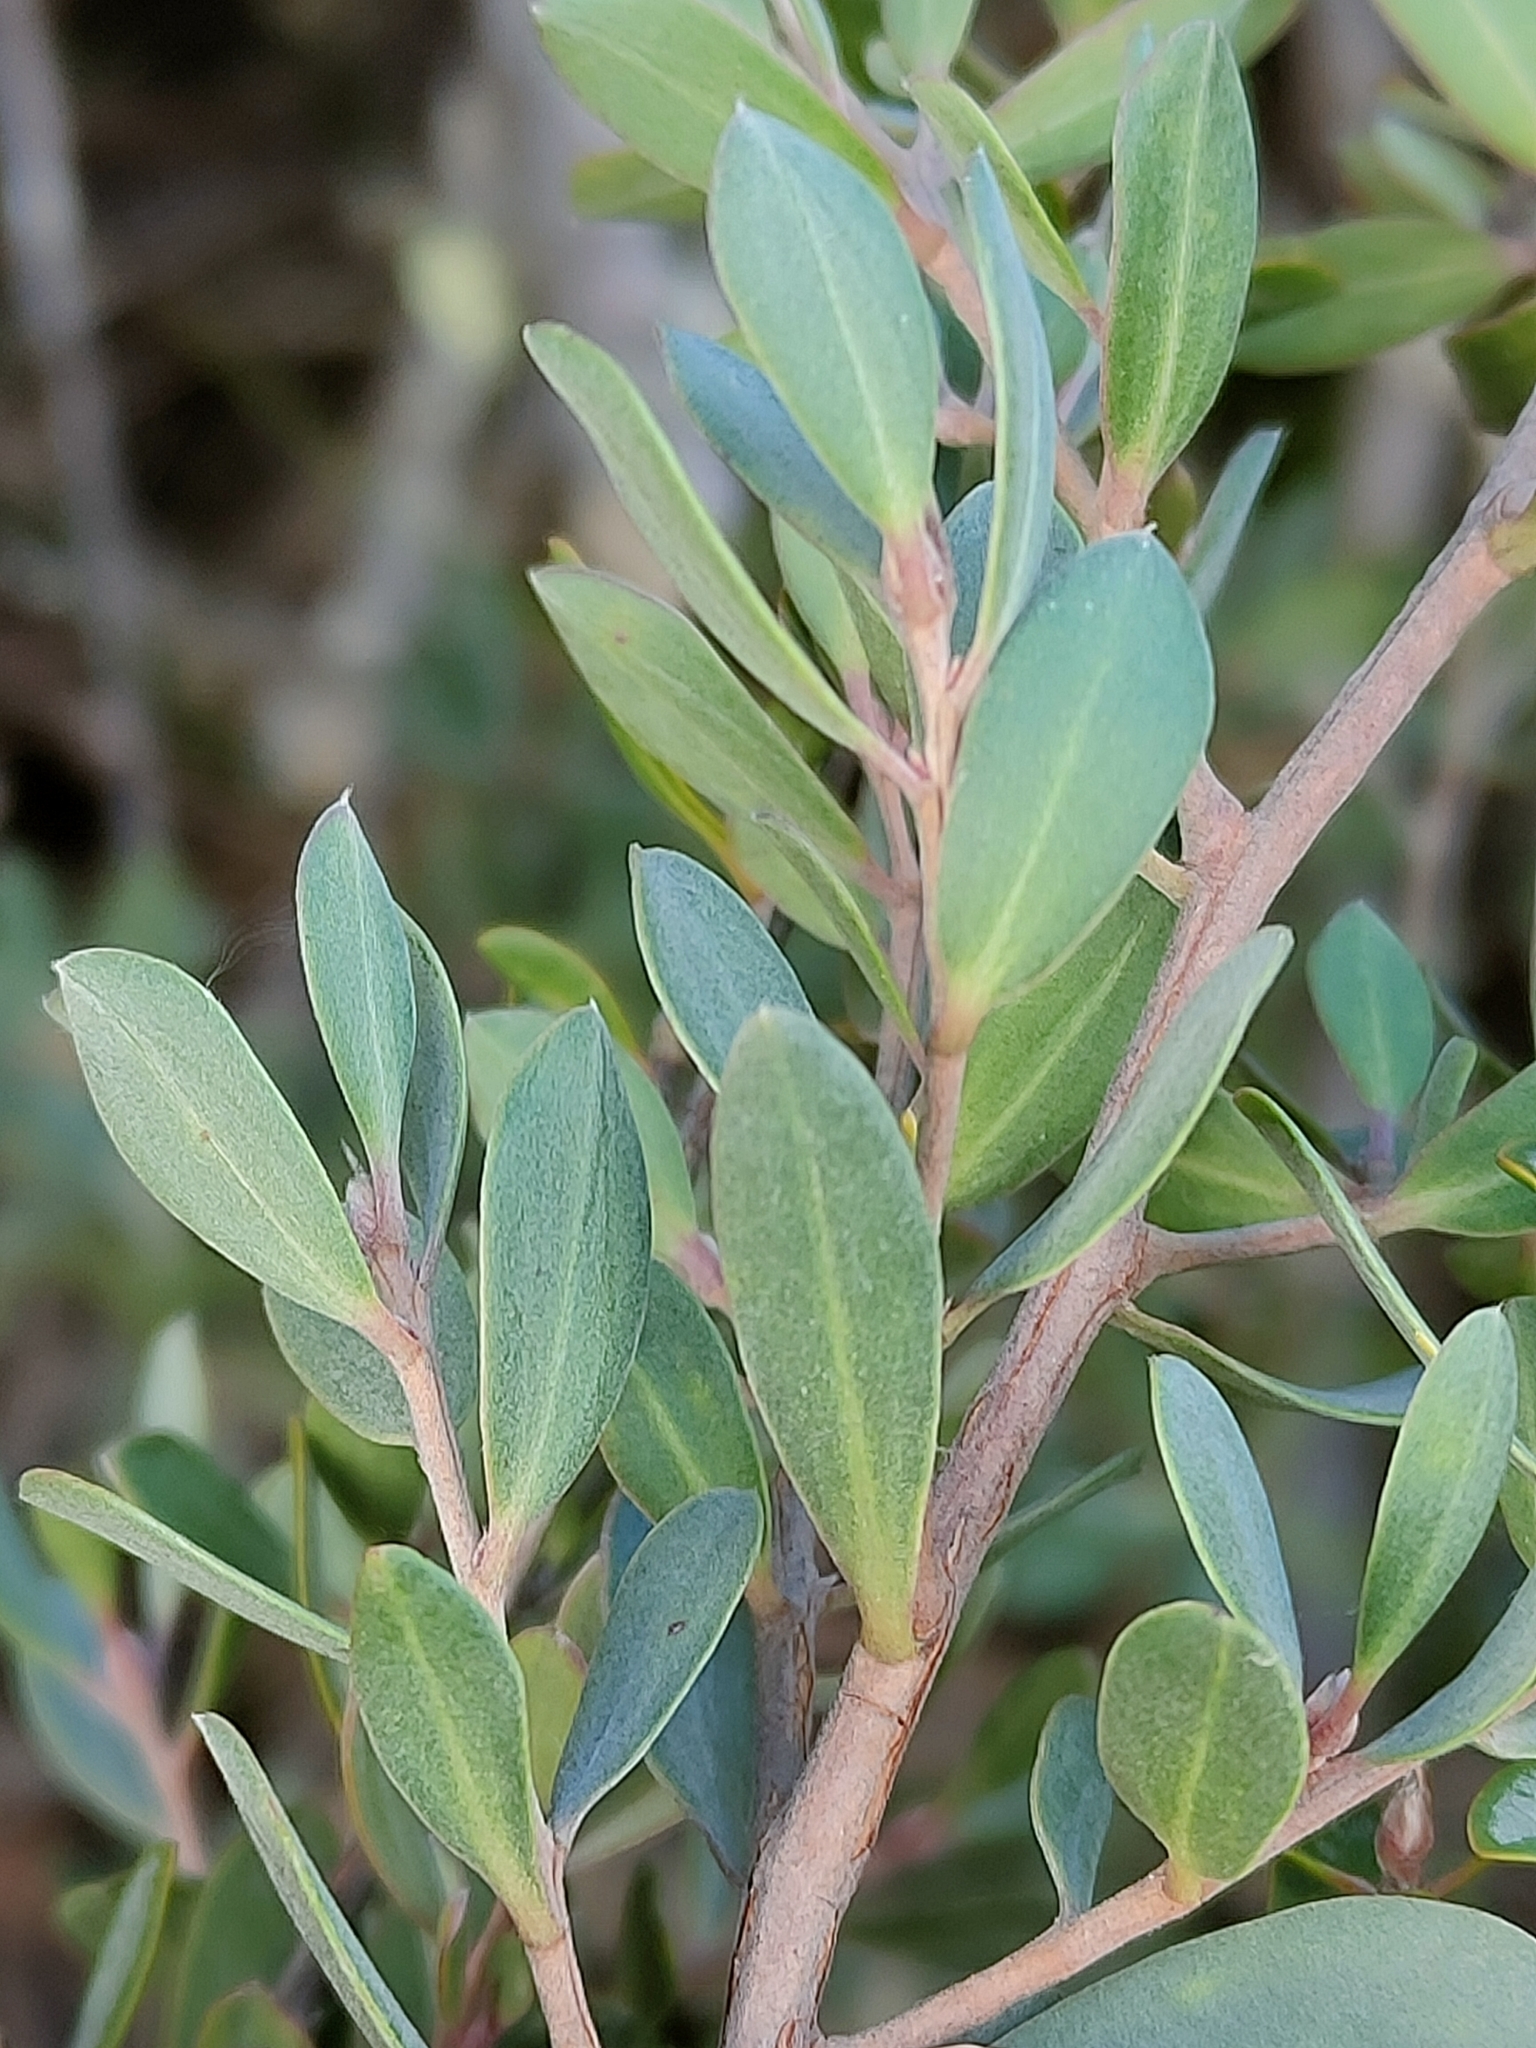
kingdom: Plantae
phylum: Tracheophyta
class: Magnoliopsida
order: Myrtales
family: Myrtaceae
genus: Leptospermum
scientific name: Leptospermum glaucescens
